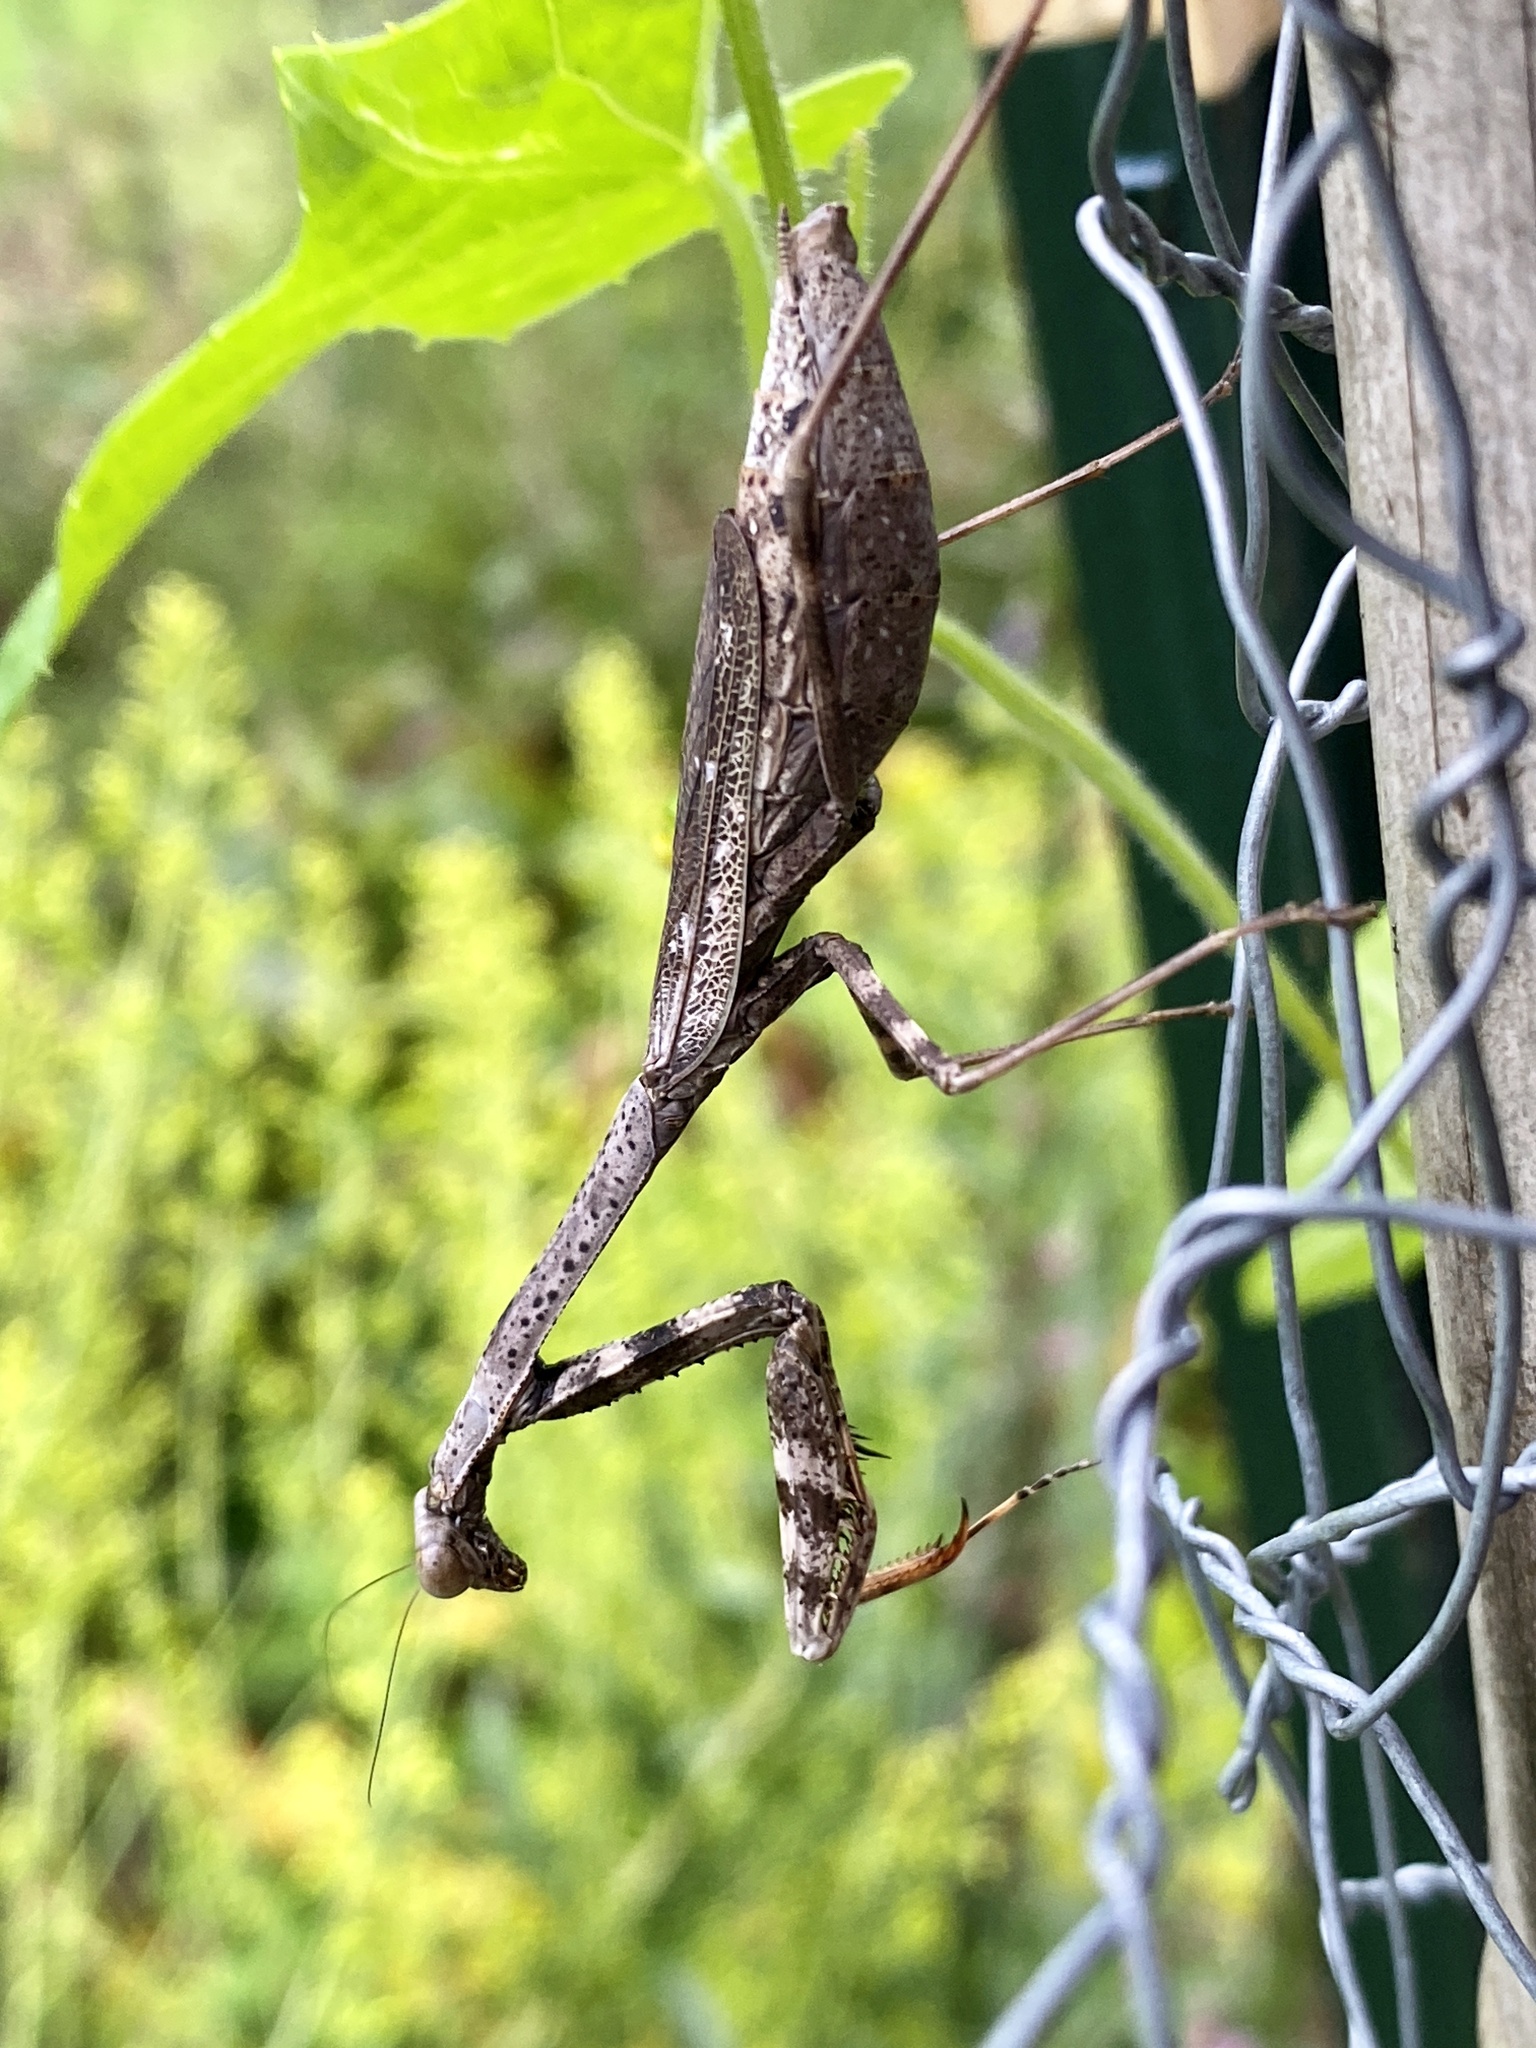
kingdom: Animalia
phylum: Arthropoda
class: Insecta
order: Mantodea
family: Mantidae
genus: Stagmomantis
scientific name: Stagmomantis carolina
